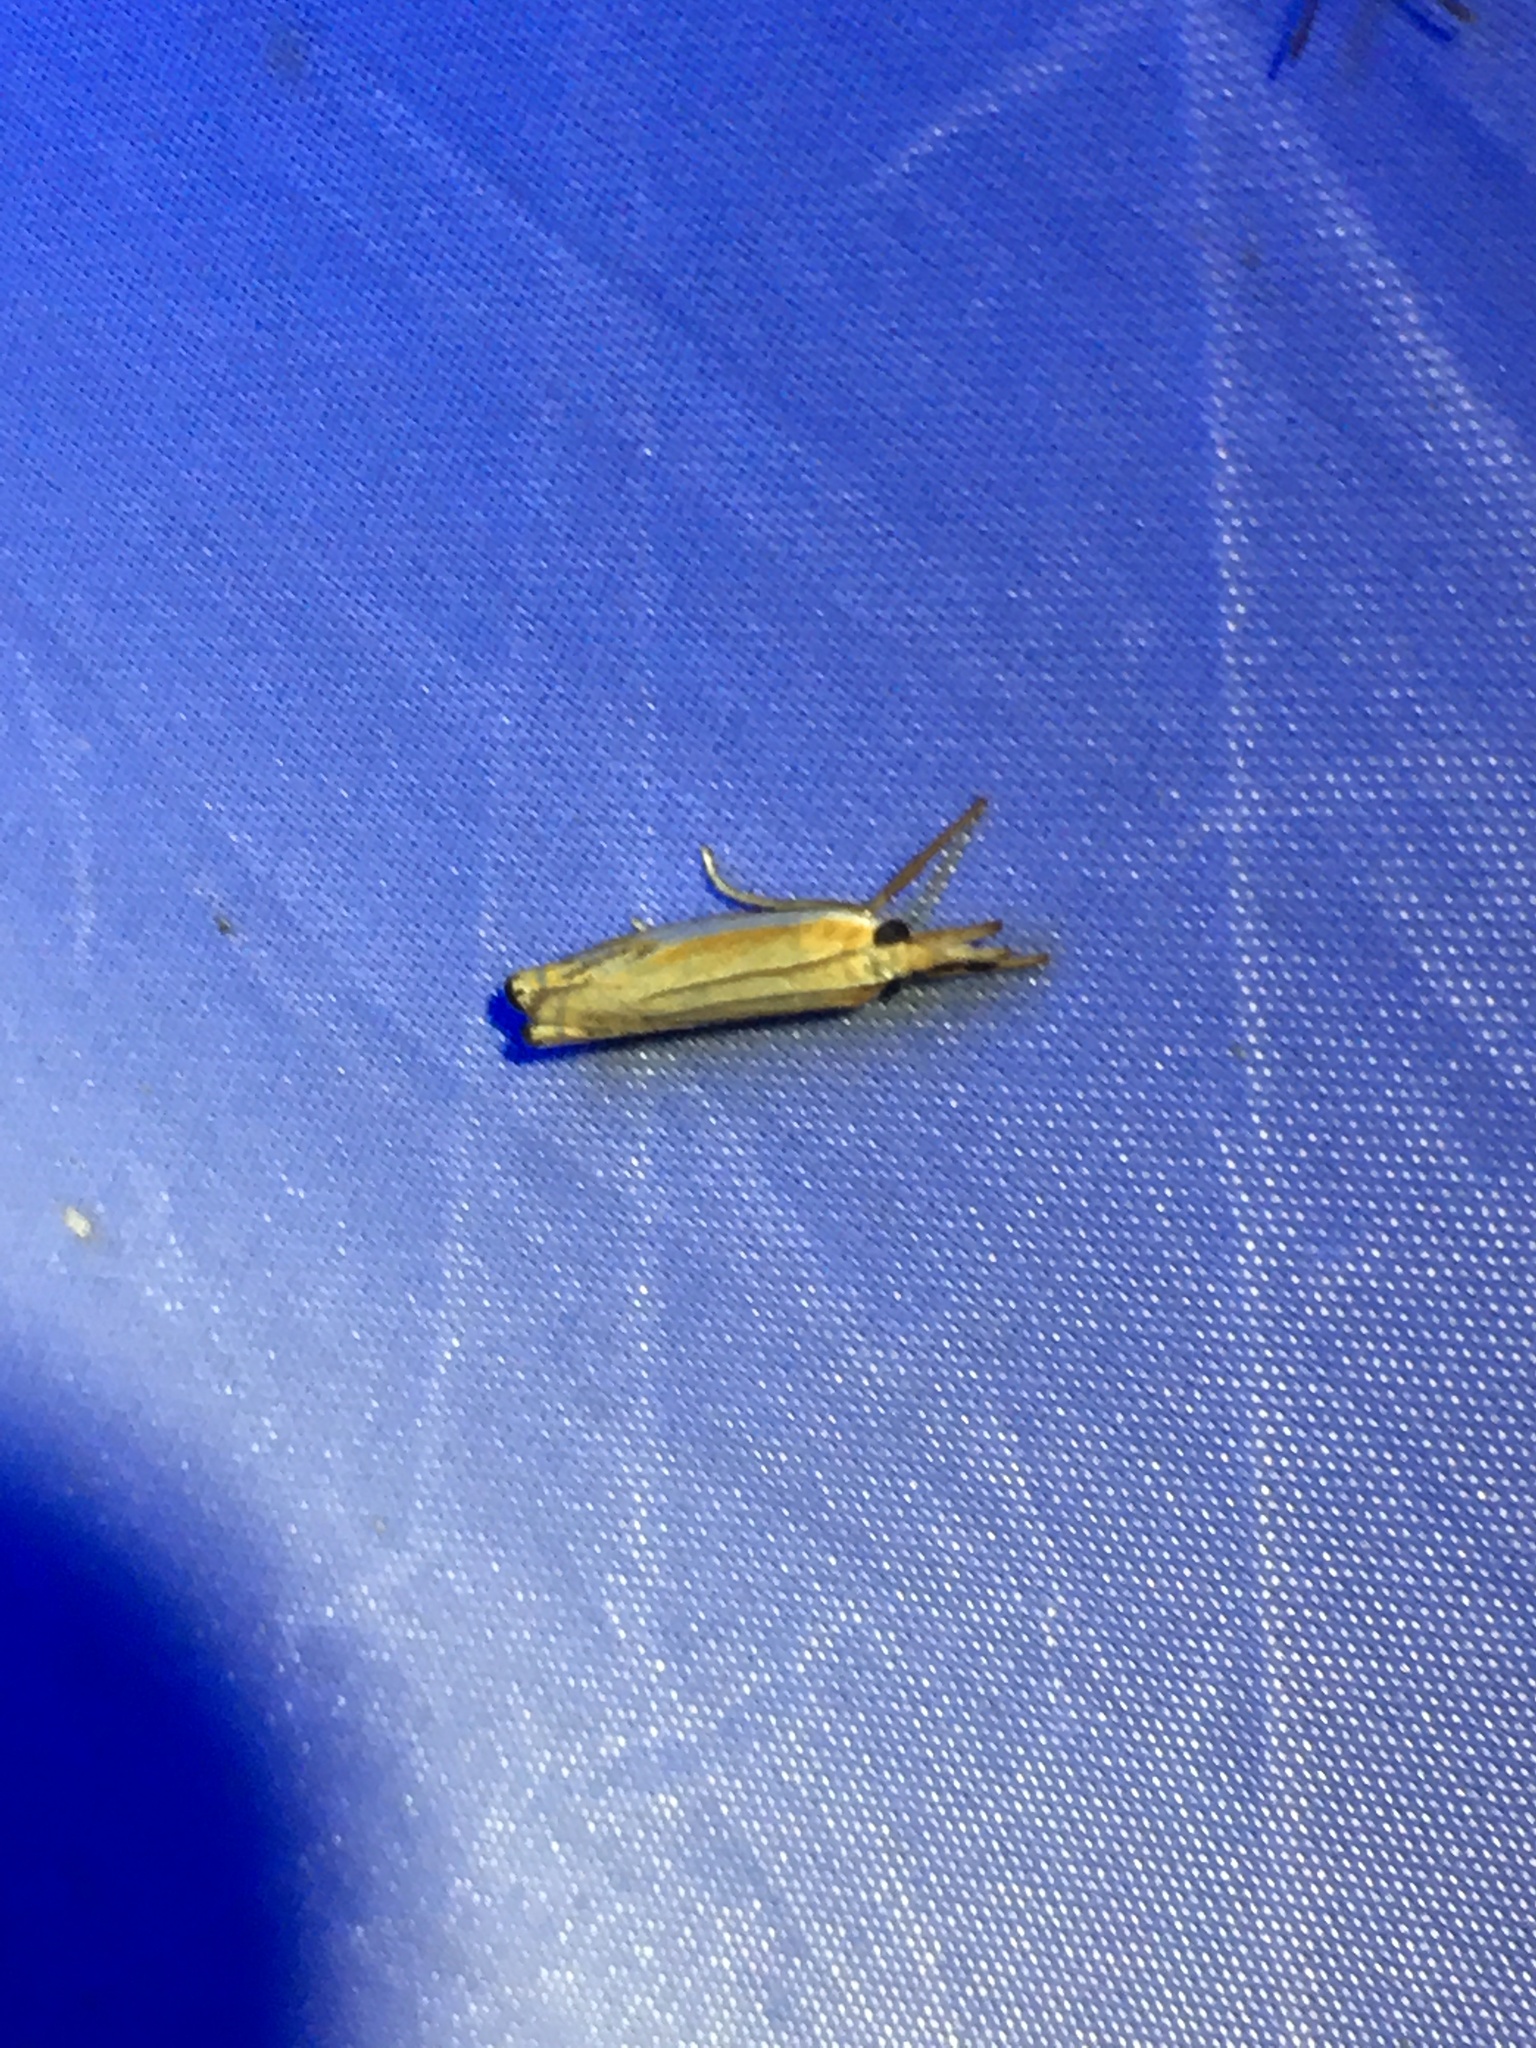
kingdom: Animalia
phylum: Arthropoda
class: Insecta
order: Lepidoptera
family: Crambidae
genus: Crambus
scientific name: Crambus
